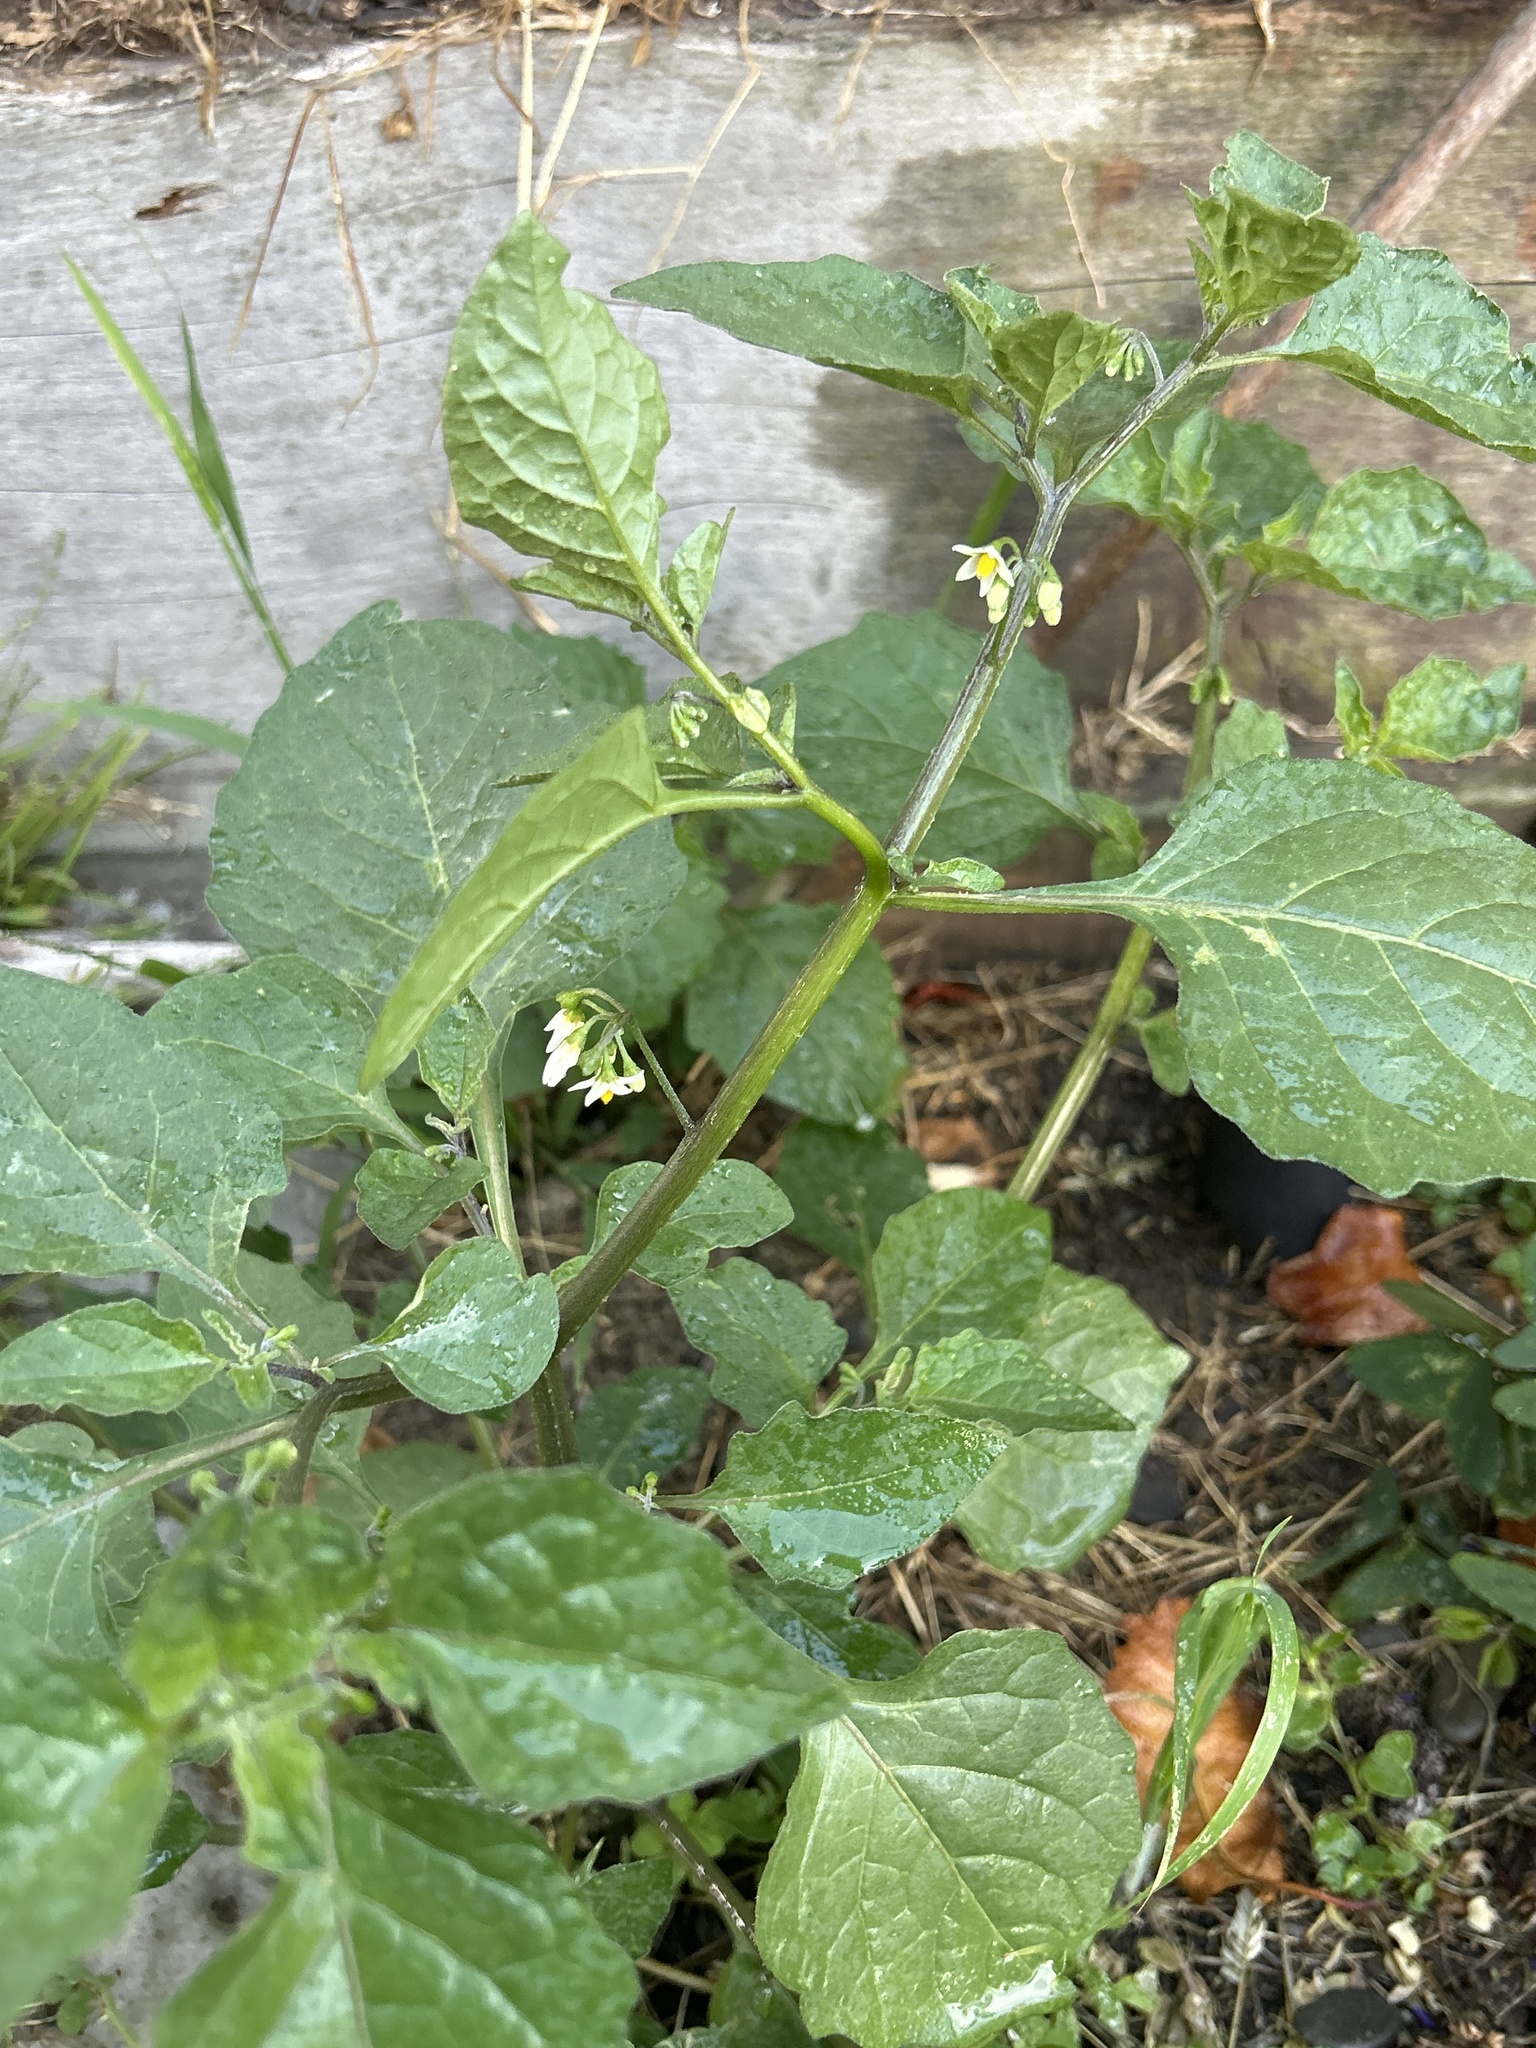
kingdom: Plantae
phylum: Tracheophyta
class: Magnoliopsida
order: Solanales
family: Solanaceae
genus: Solanum
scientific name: Solanum nigrum
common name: Black nightshade
